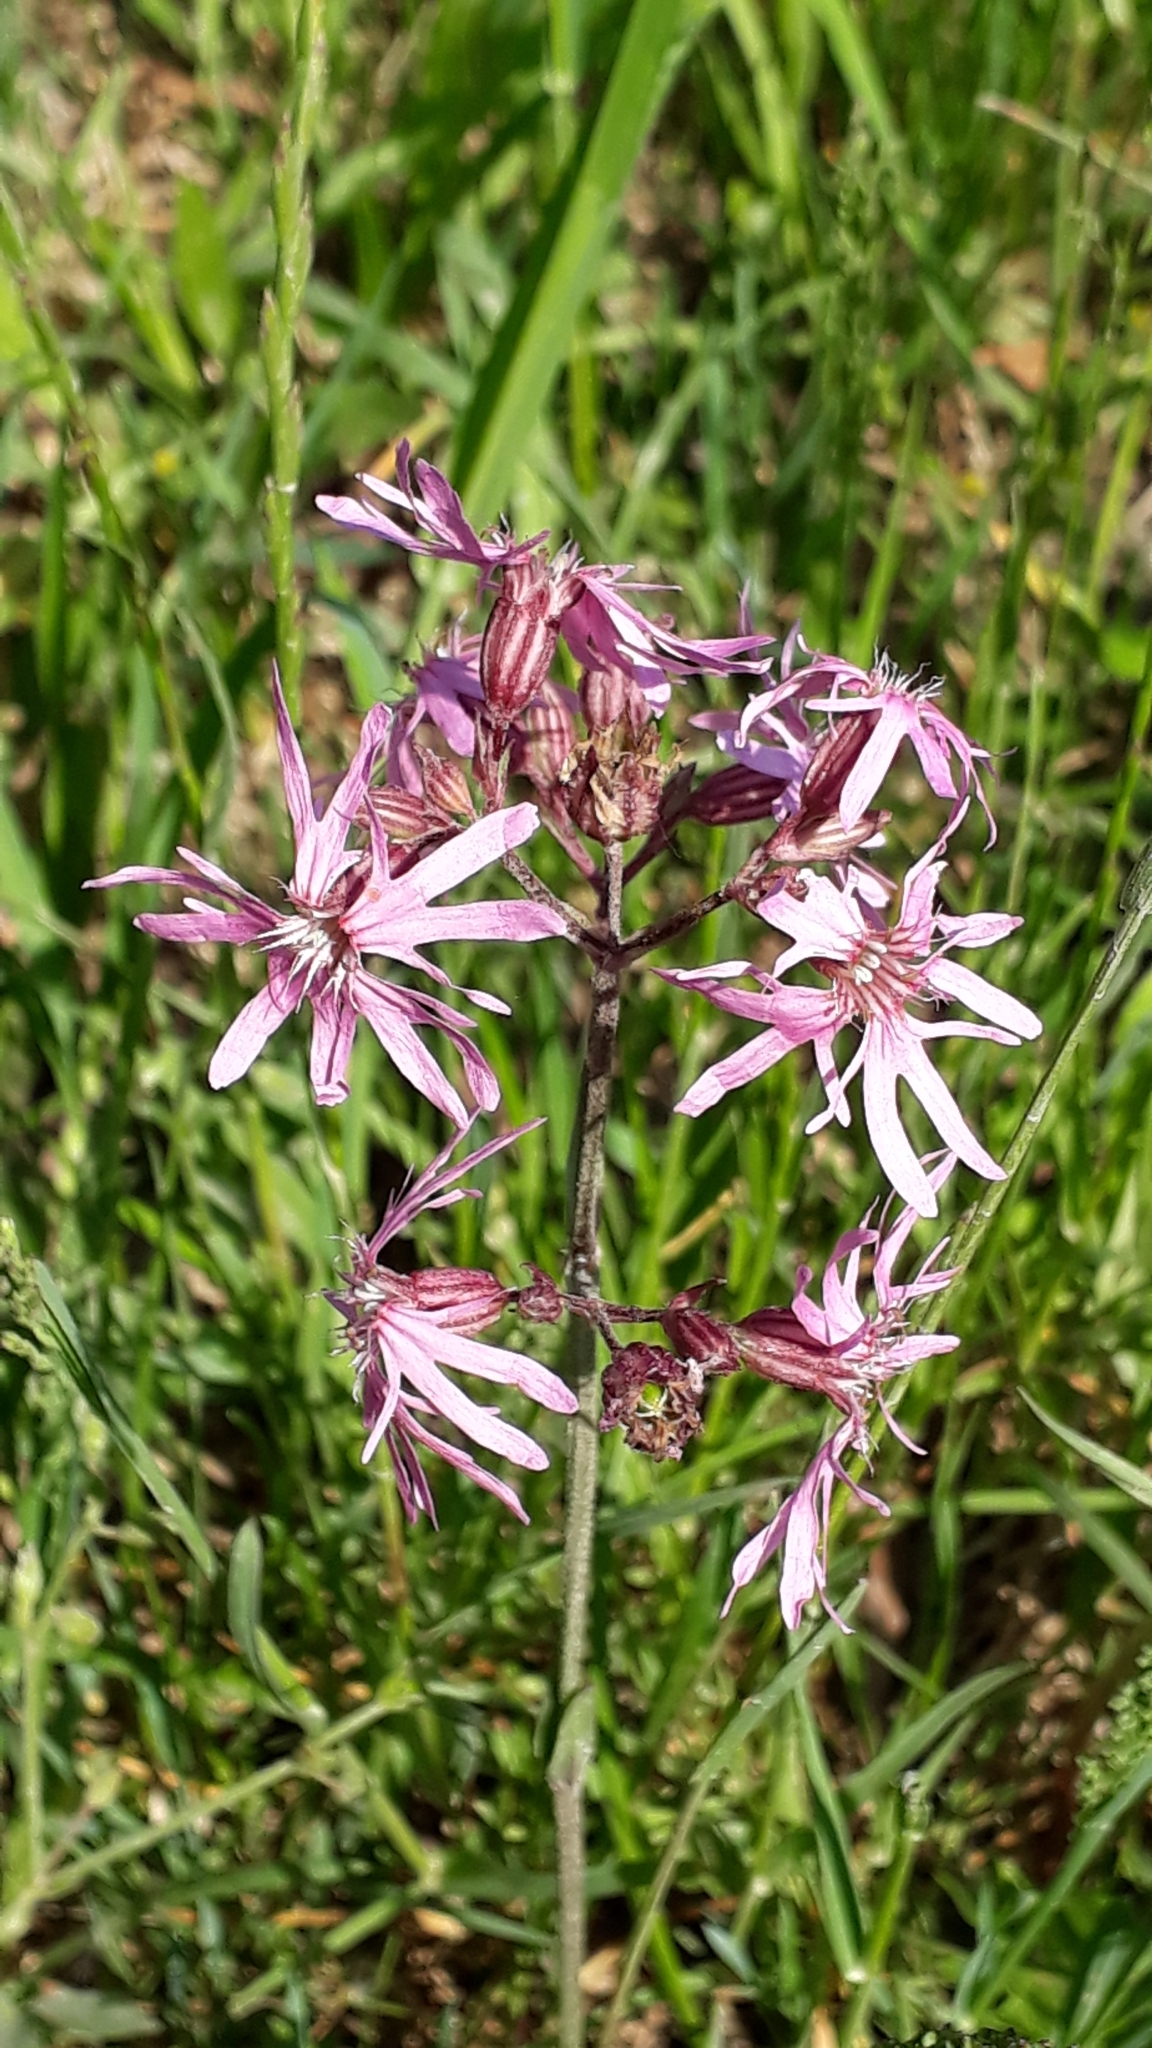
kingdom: Plantae
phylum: Tracheophyta
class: Magnoliopsida
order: Caryophyllales
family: Caryophyllaceae
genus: Silene
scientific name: Silene flos-cuculi
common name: Ragged-robin
